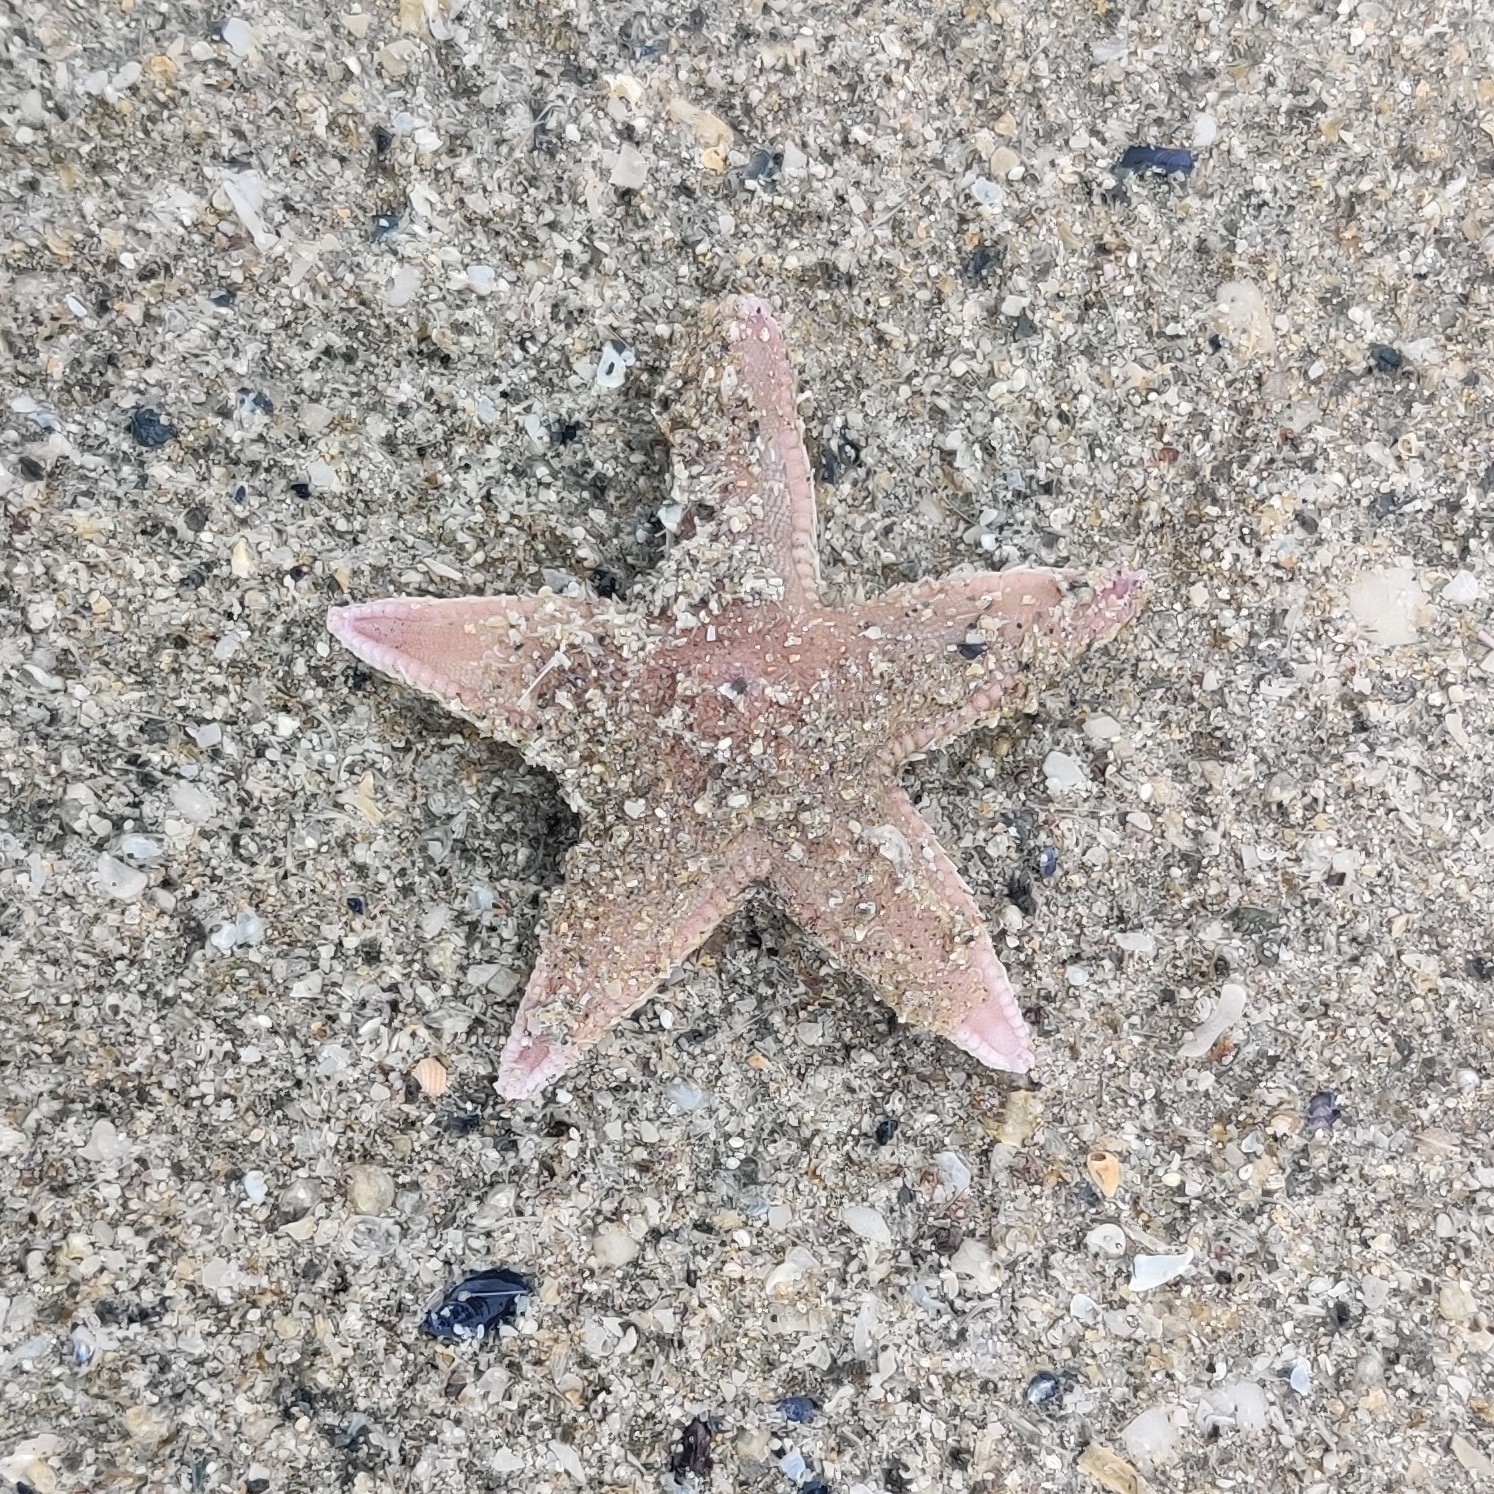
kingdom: Animalia
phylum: Echinodermata
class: Asteroidea
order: Paxillosida
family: Astropectinidae
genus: Astropecten
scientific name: Astropecten irregularis
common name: Sand star
